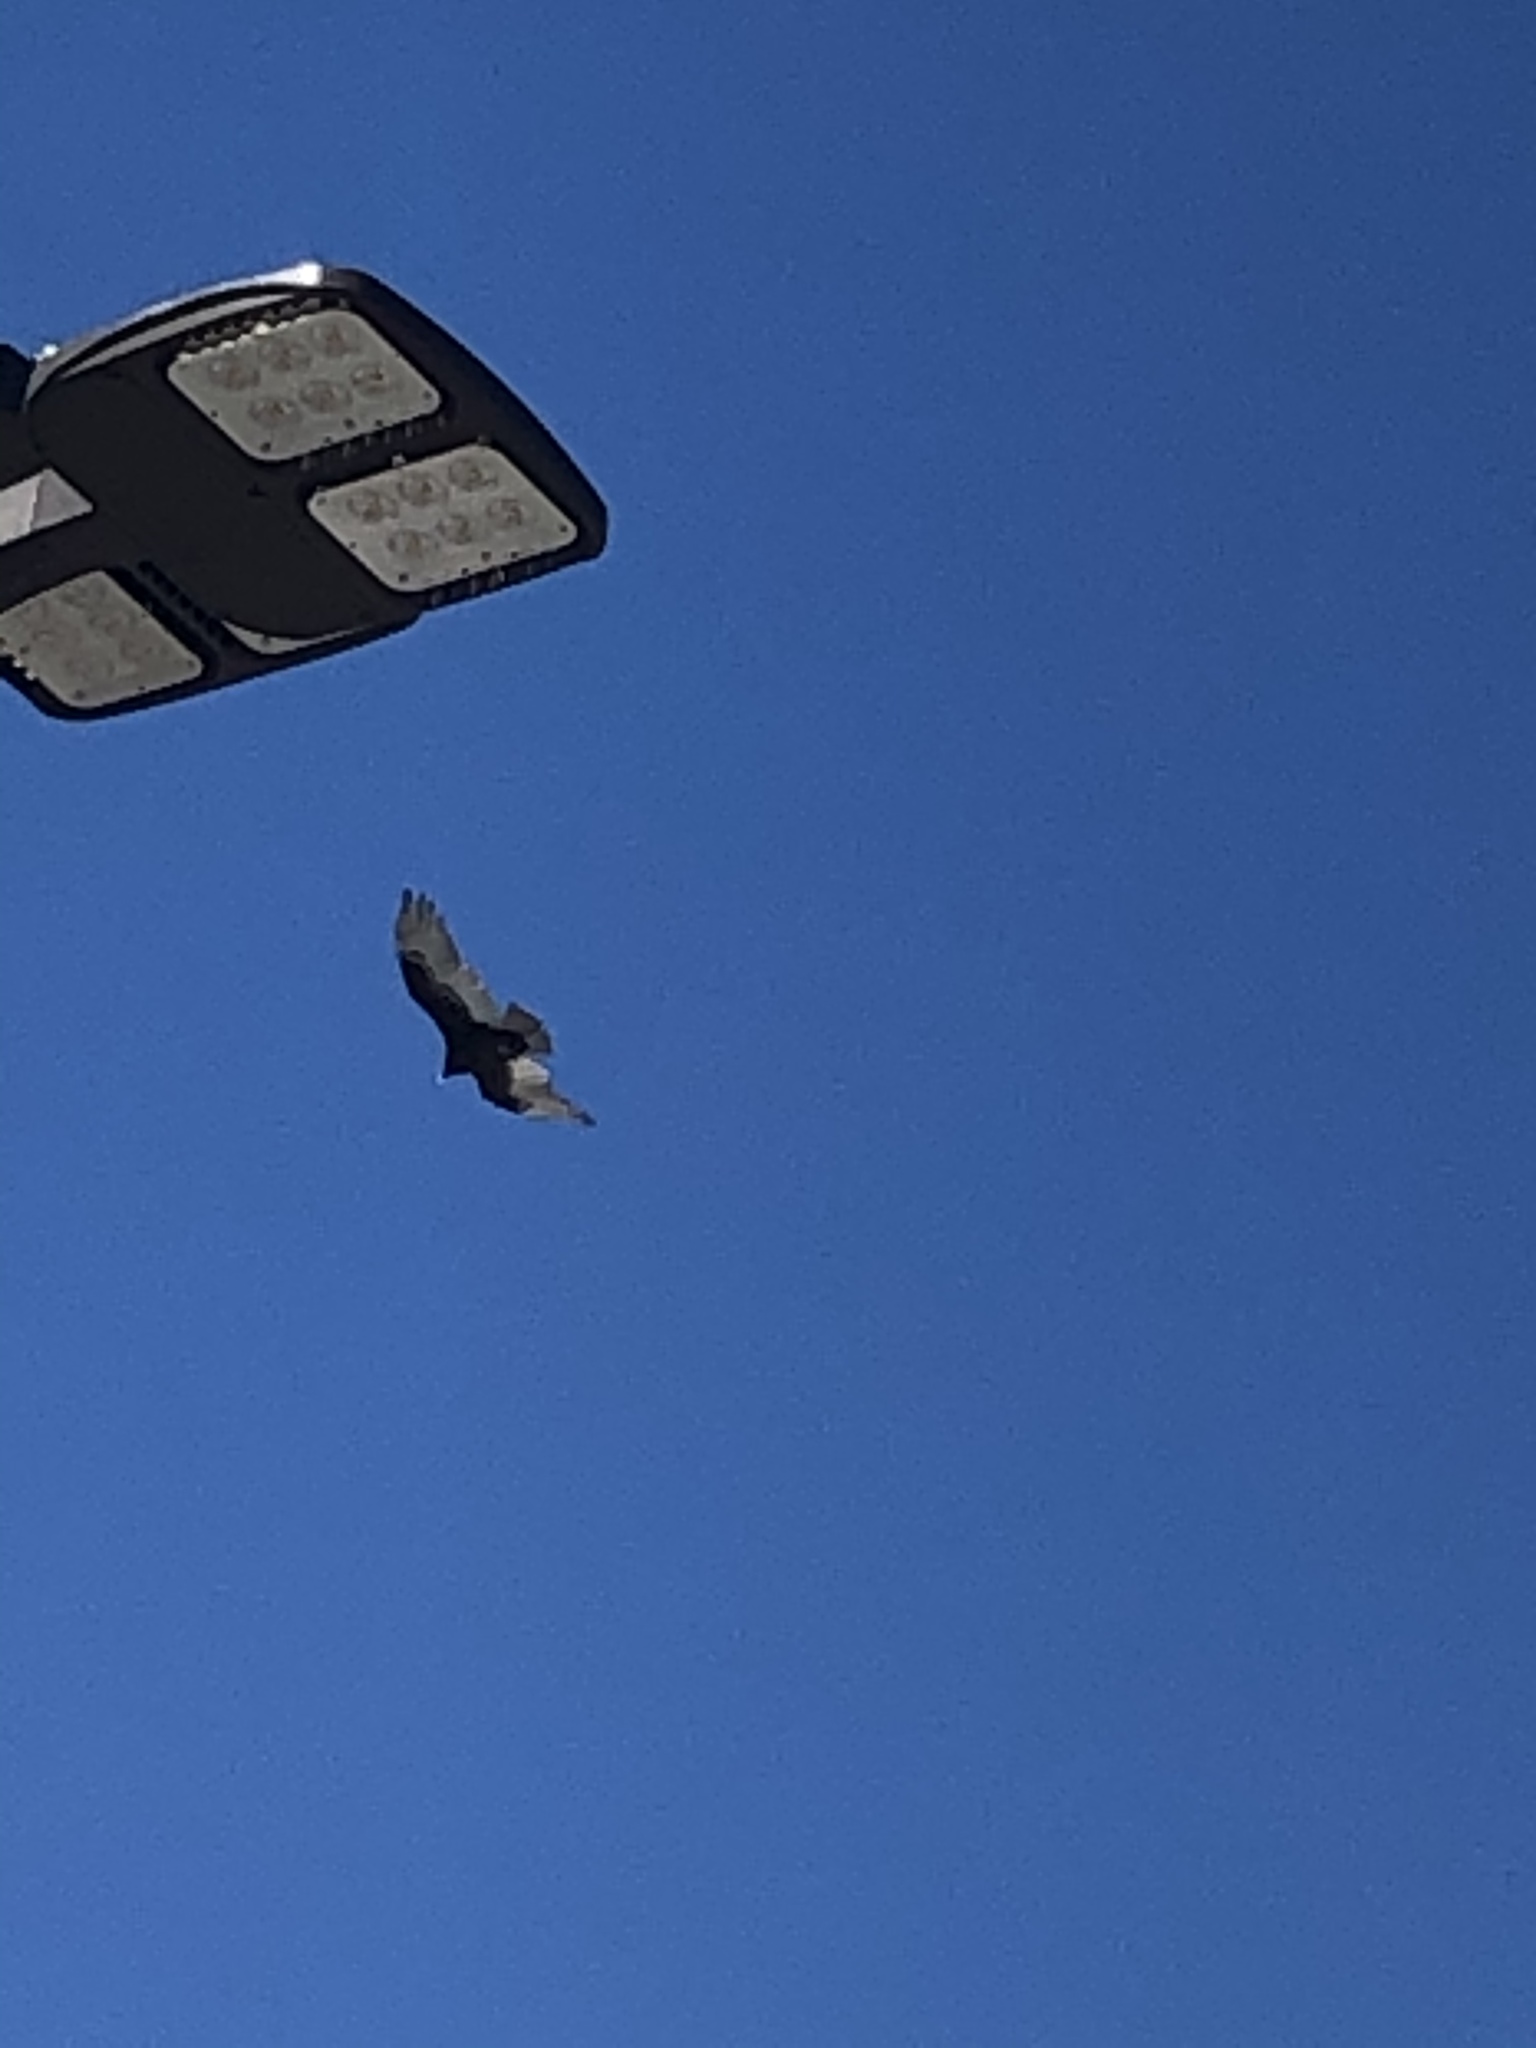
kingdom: Animalia
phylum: Chordata
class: Aves
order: Accipitriformes
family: Cathartidae
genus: Cathartes
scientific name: Cathartes aura
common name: Turkey vulture
